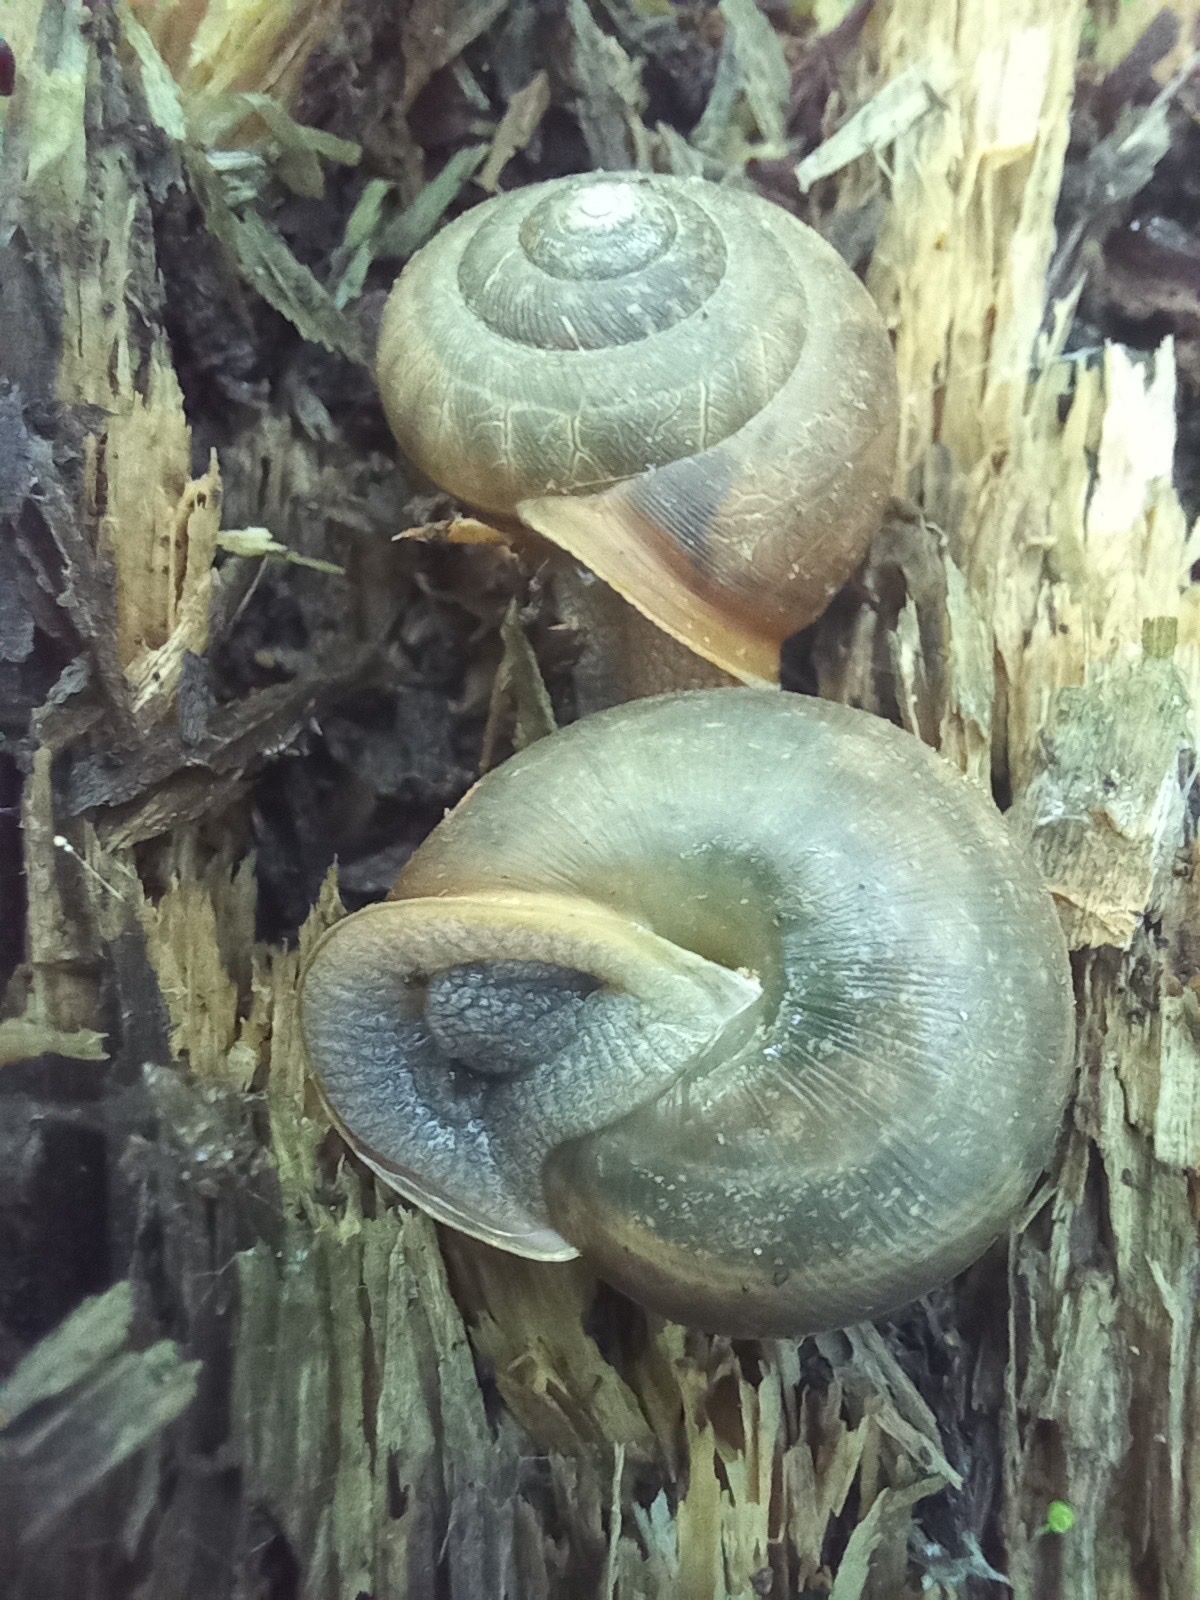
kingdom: Animalia
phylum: Mollusca
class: Gastropoda
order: Stylommatophora
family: Polygyridae
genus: Mesodon
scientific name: Mesodon thyroidus
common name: White-lip globe
